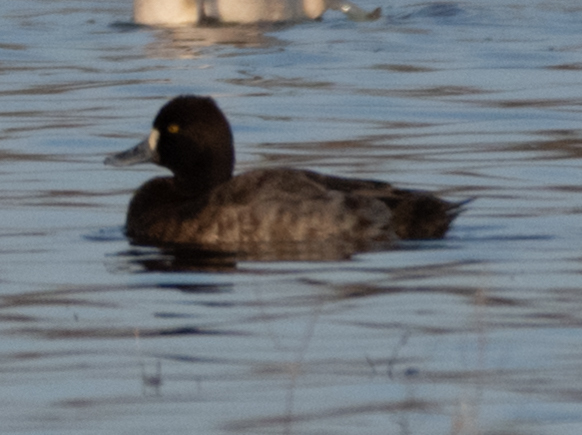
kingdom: Animalia
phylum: Chordata
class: Aves
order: Anseriformes
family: Anatidae
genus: Aythya
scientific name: Aythya affinis
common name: Lesser scaup
